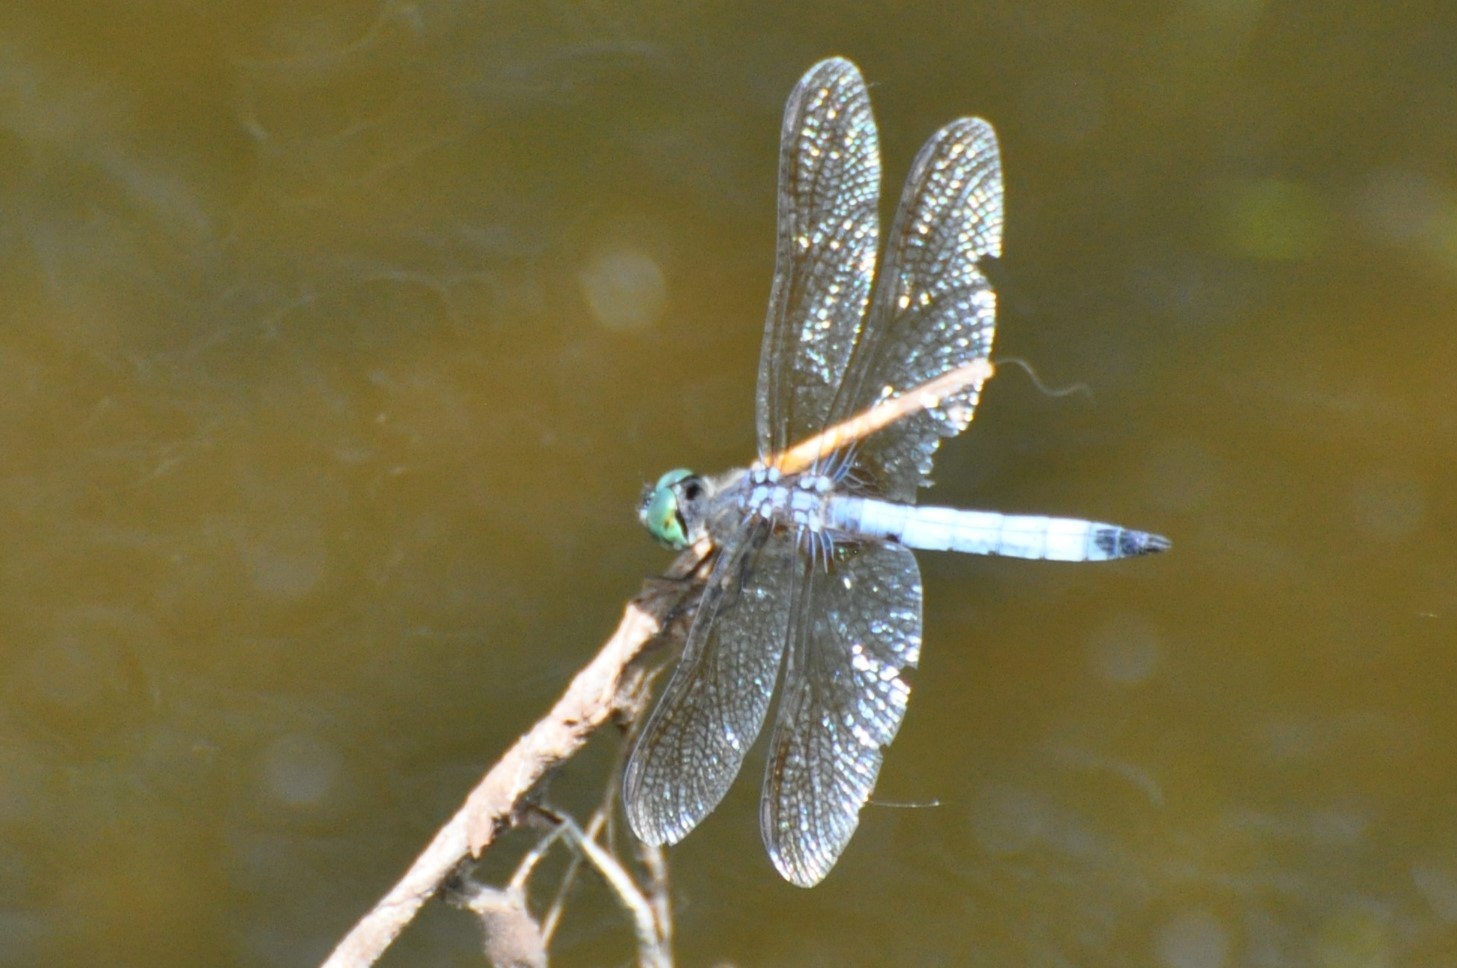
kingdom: Animalia
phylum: Arthropoda
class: Insecta
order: Odonata
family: Libellulidae
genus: Pachydiplax
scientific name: Pachydiplax longipennis
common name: Blue dasher
